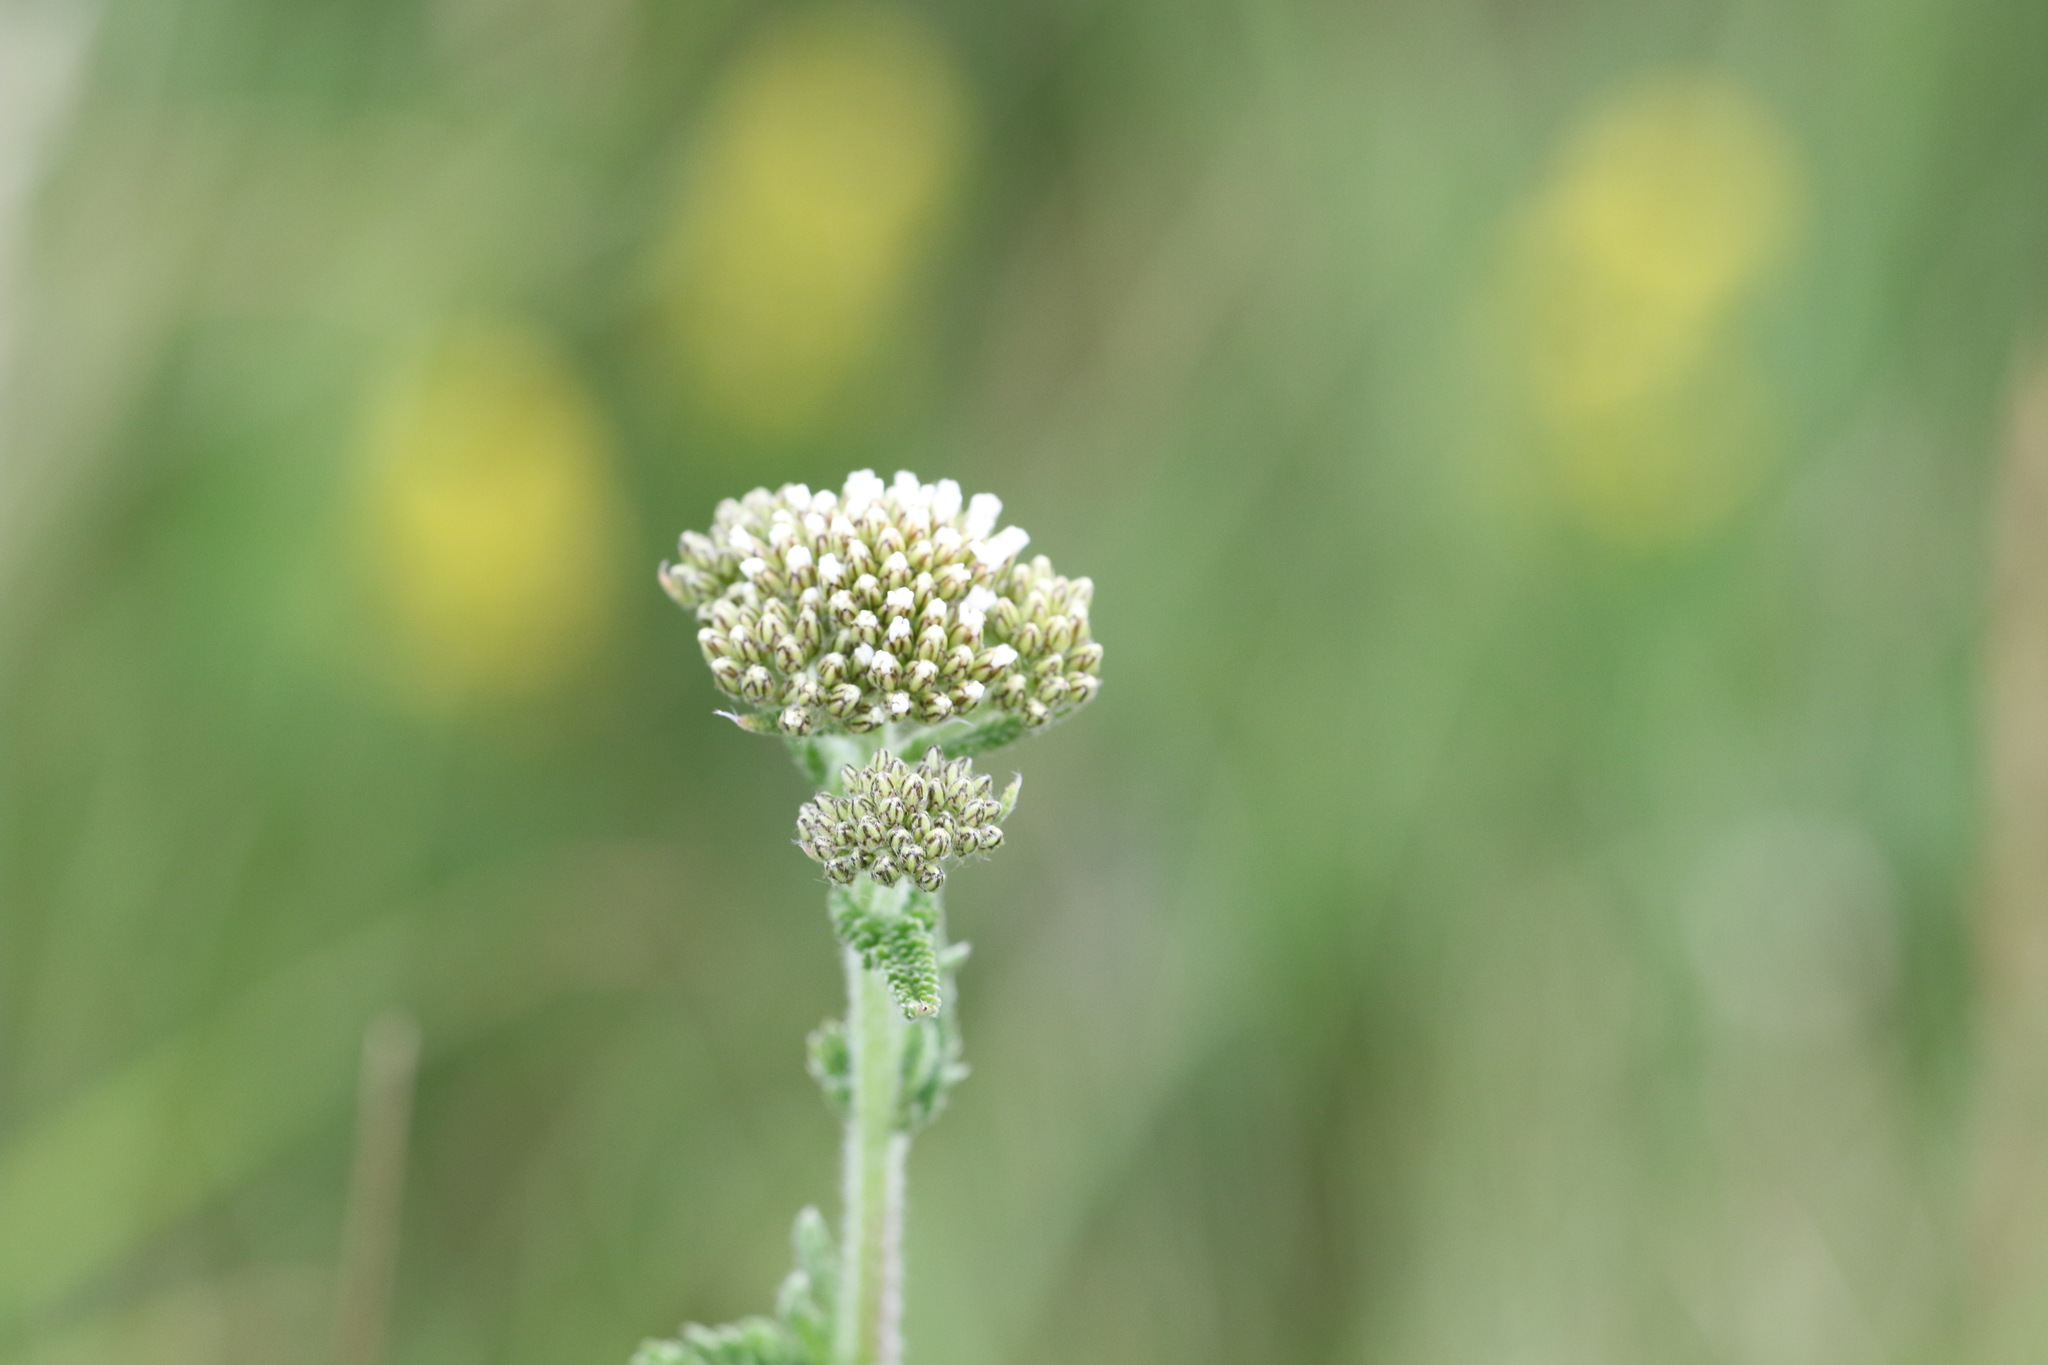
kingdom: Plantae
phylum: Tracheophyta
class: Magnoliopsida
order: Asterales
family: Asteraceae
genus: Achillea
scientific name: Achillea millefolium
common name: Yarrow
